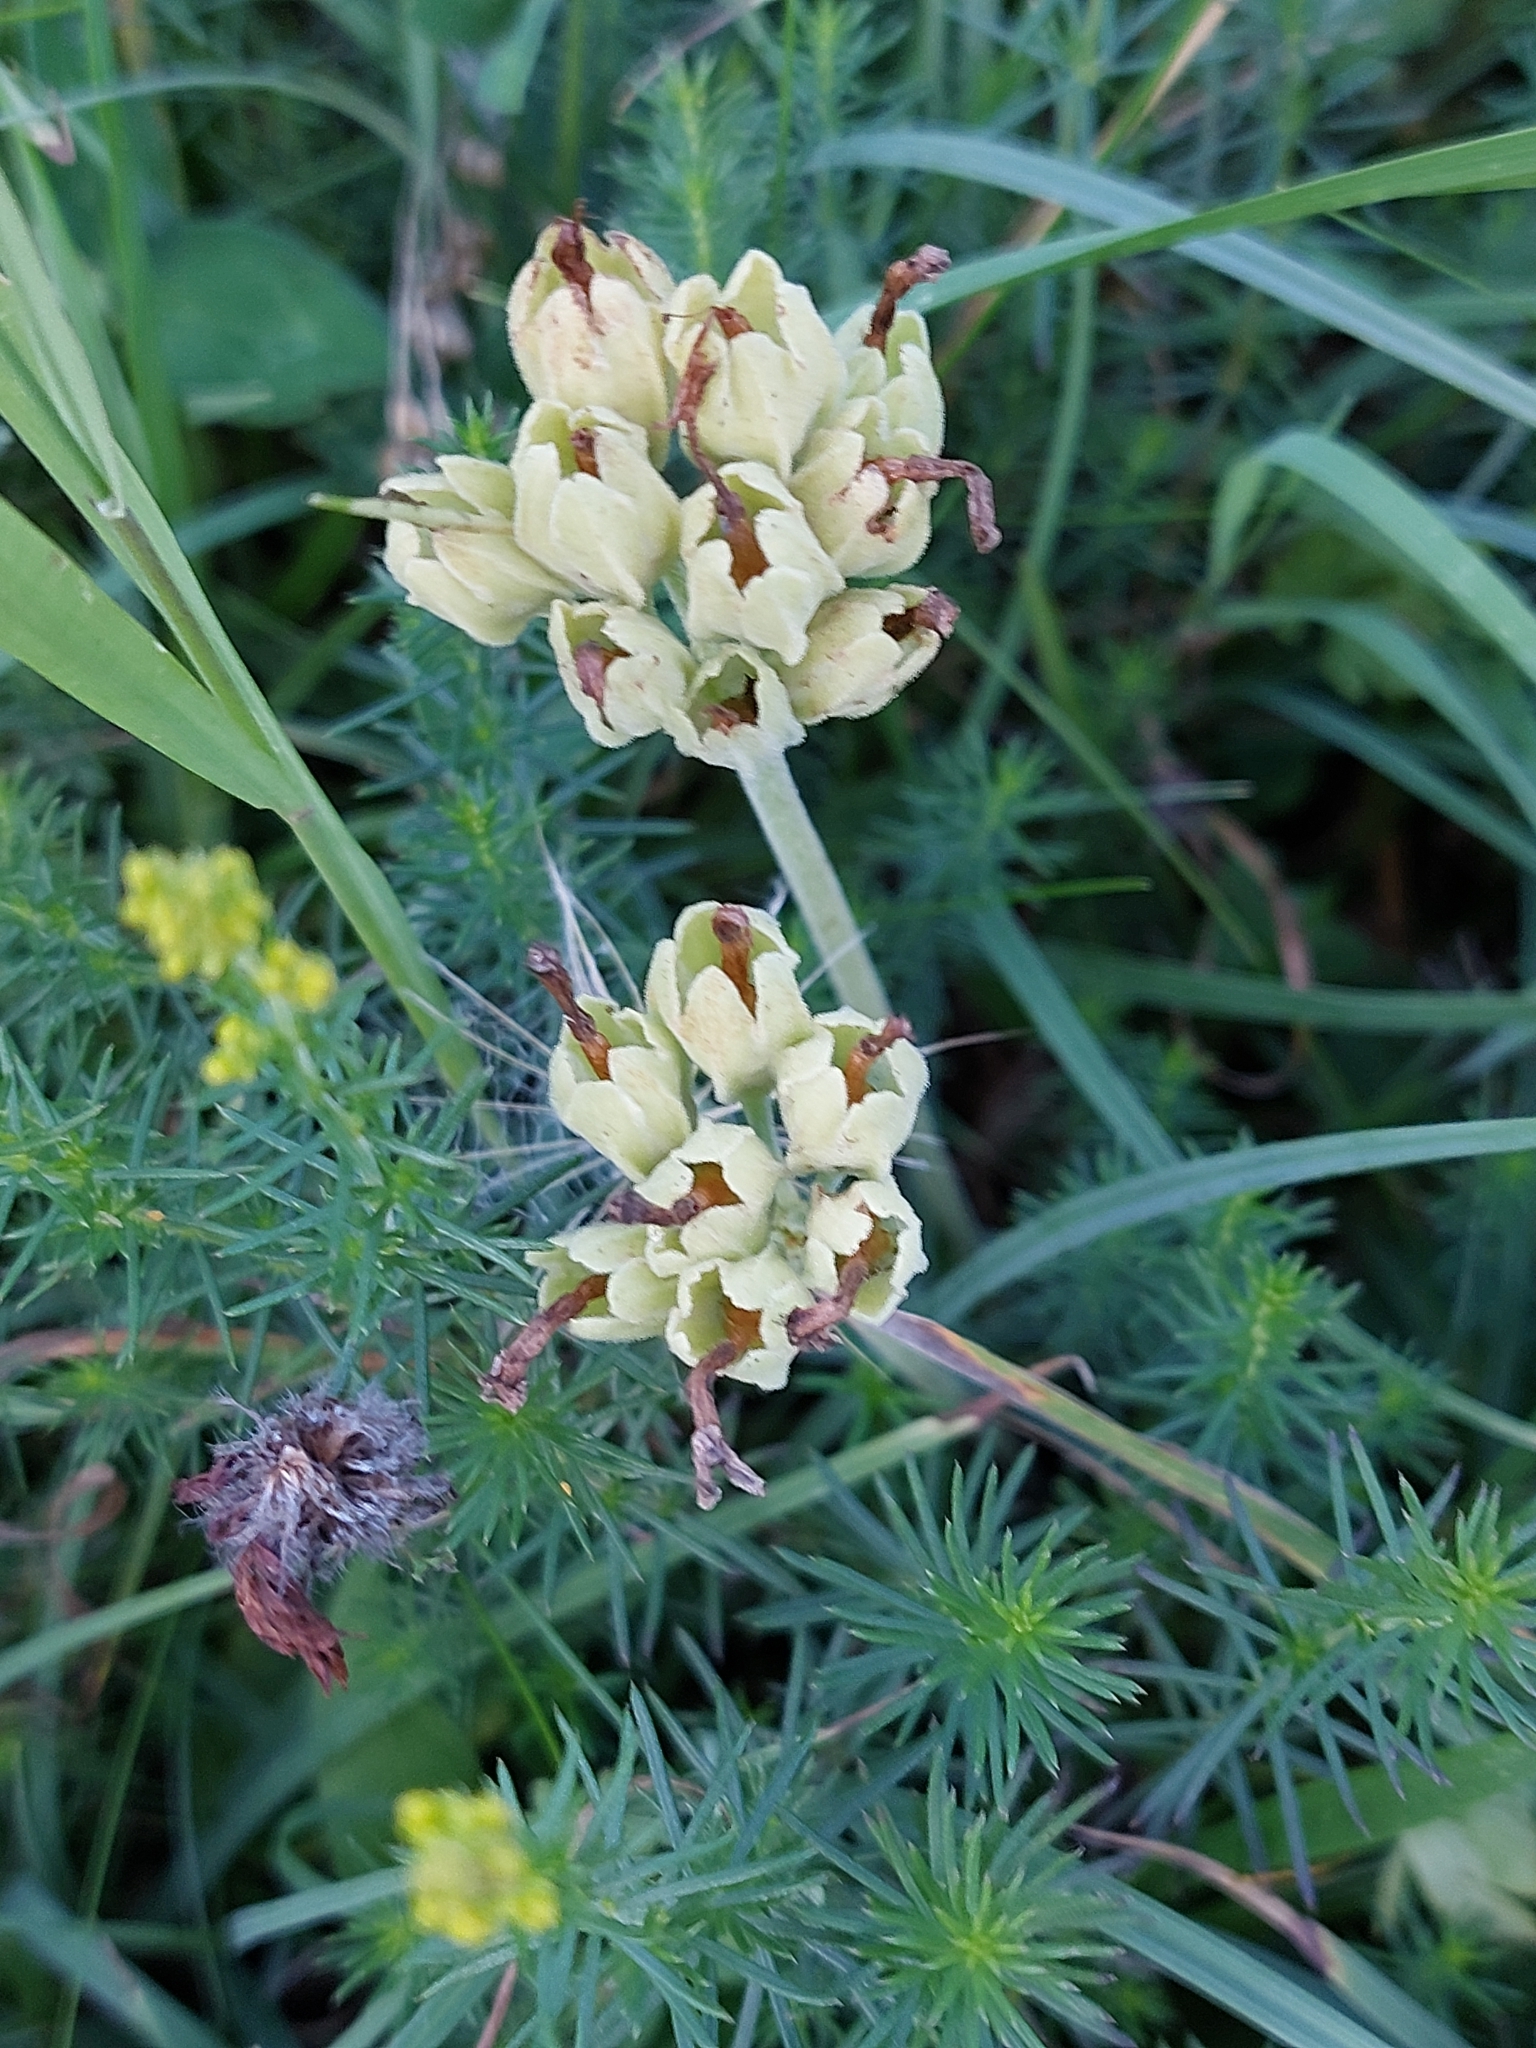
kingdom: Plantae
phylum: Tracheophyta
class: Magnoliopsida
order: Ericales
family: Primulaceae
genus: Primula
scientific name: Primula veris
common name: Cowslip
